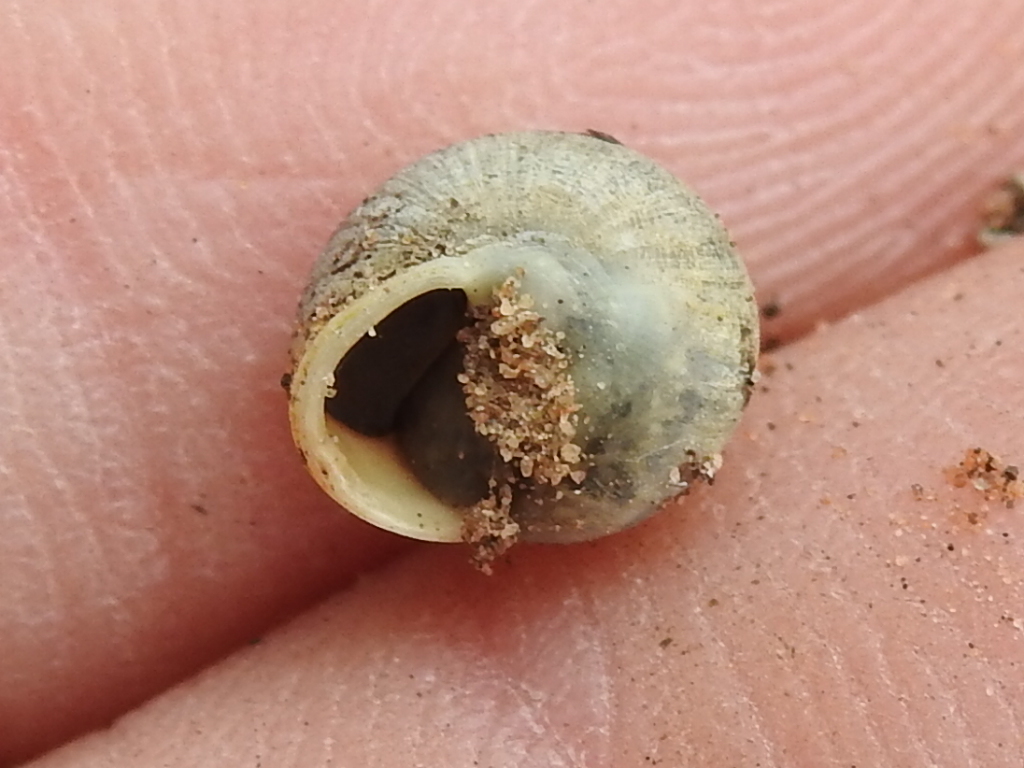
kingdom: Animalia
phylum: Mollusca
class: Gastropoda
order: Cycloneritida
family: Helicinidae
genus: Helicina
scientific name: Helicina orbiculata
